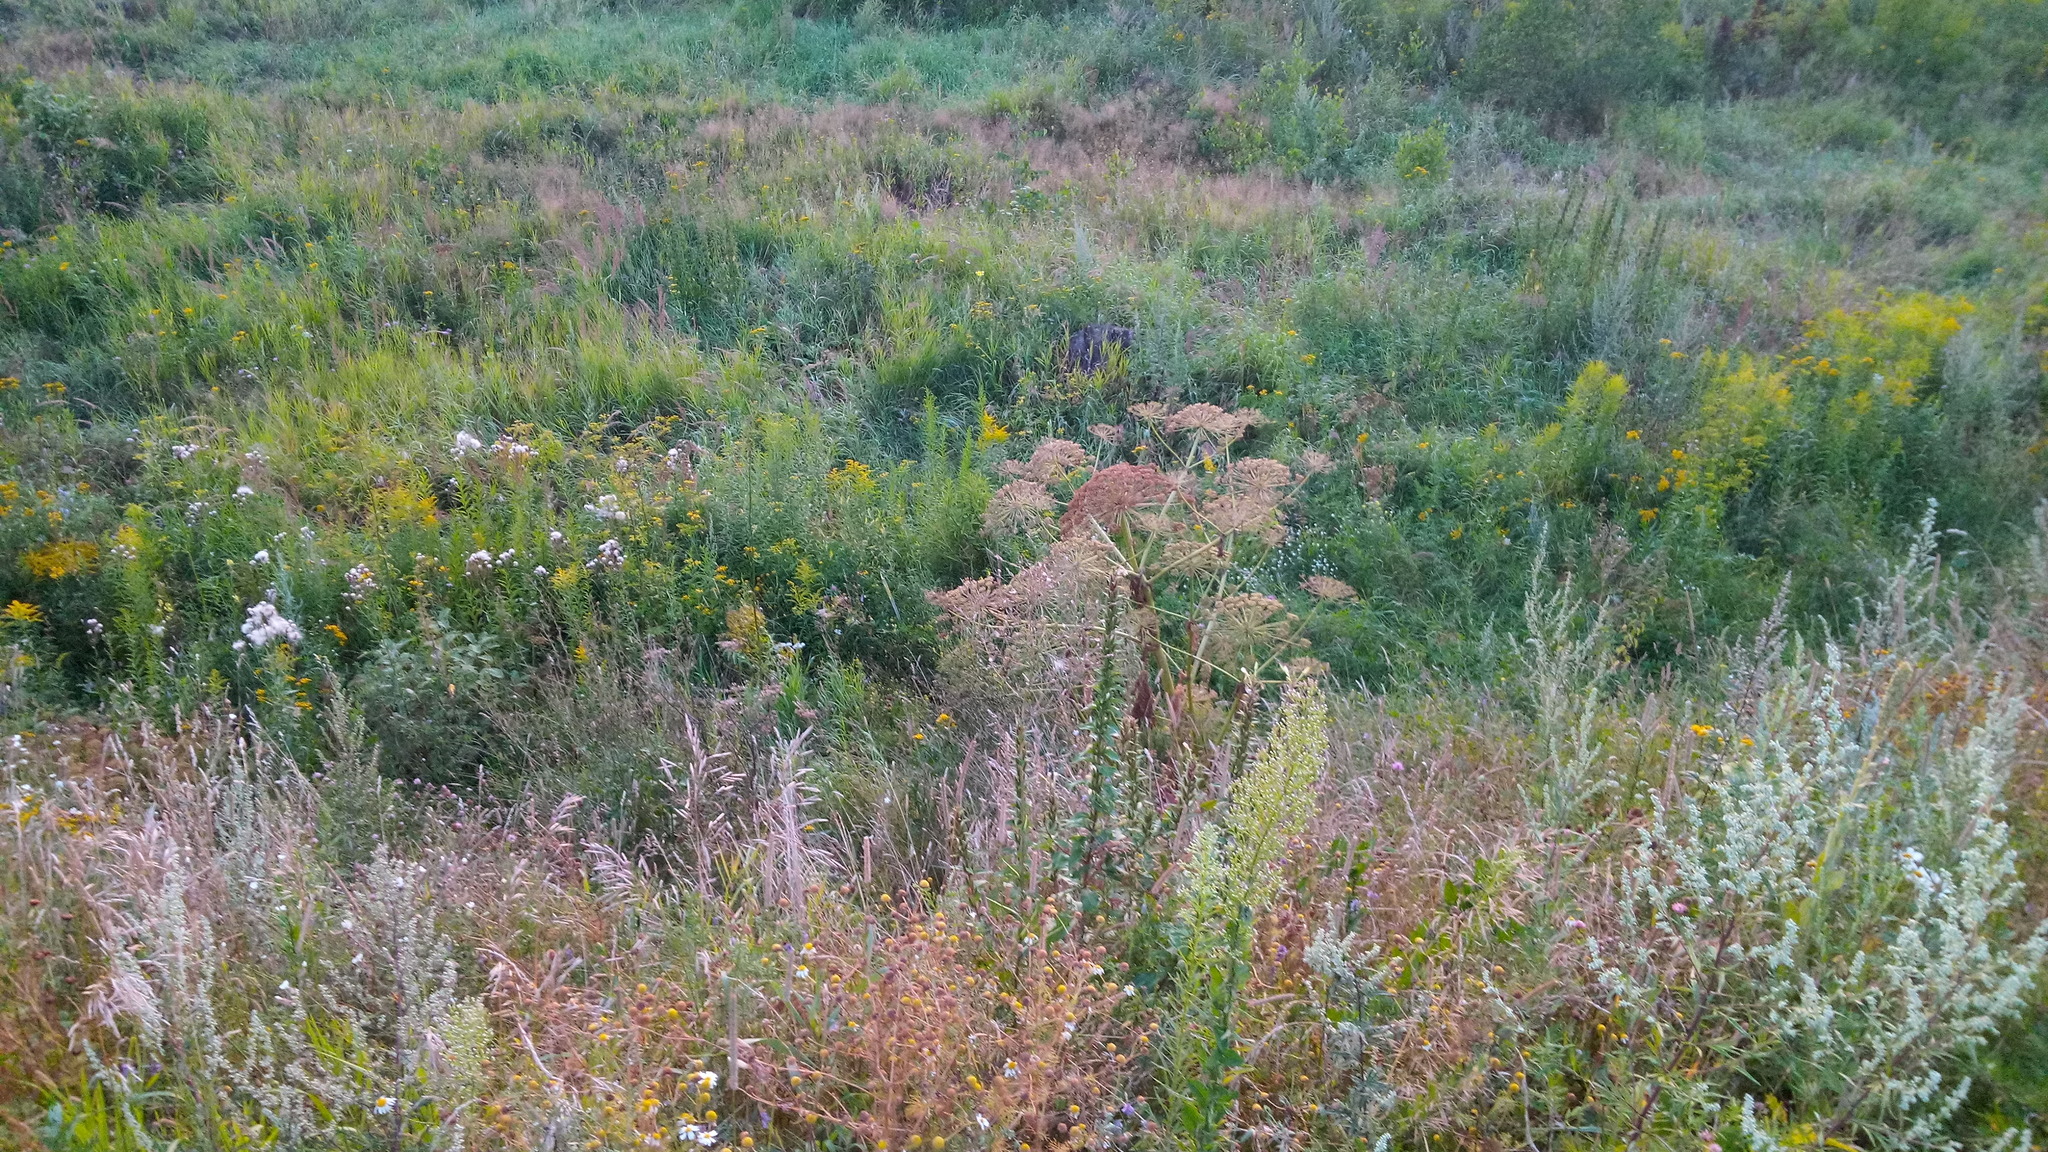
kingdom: Plantae
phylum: Tracheophyta
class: Magnoliopsida
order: Apiales
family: Apiaceae
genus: Heracleum
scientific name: Heracleum sosnowskyi
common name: Sosnowsky's hogweed
